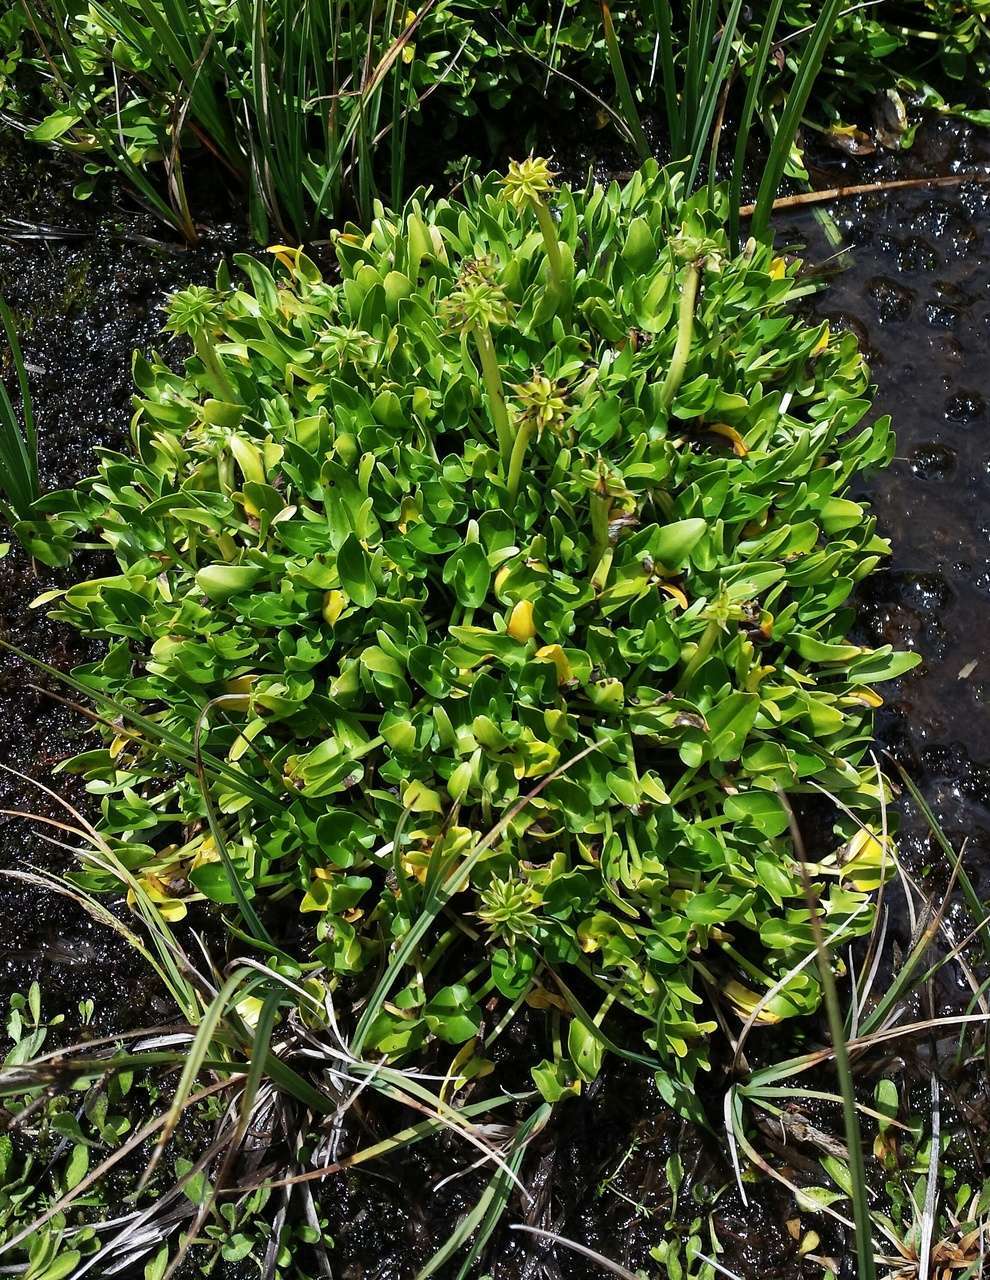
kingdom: Plantae
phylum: Tracheophyta
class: Magnoliopsida
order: Ranunculales
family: Ranunculaceae
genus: Caltha
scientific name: Caltha introloba
